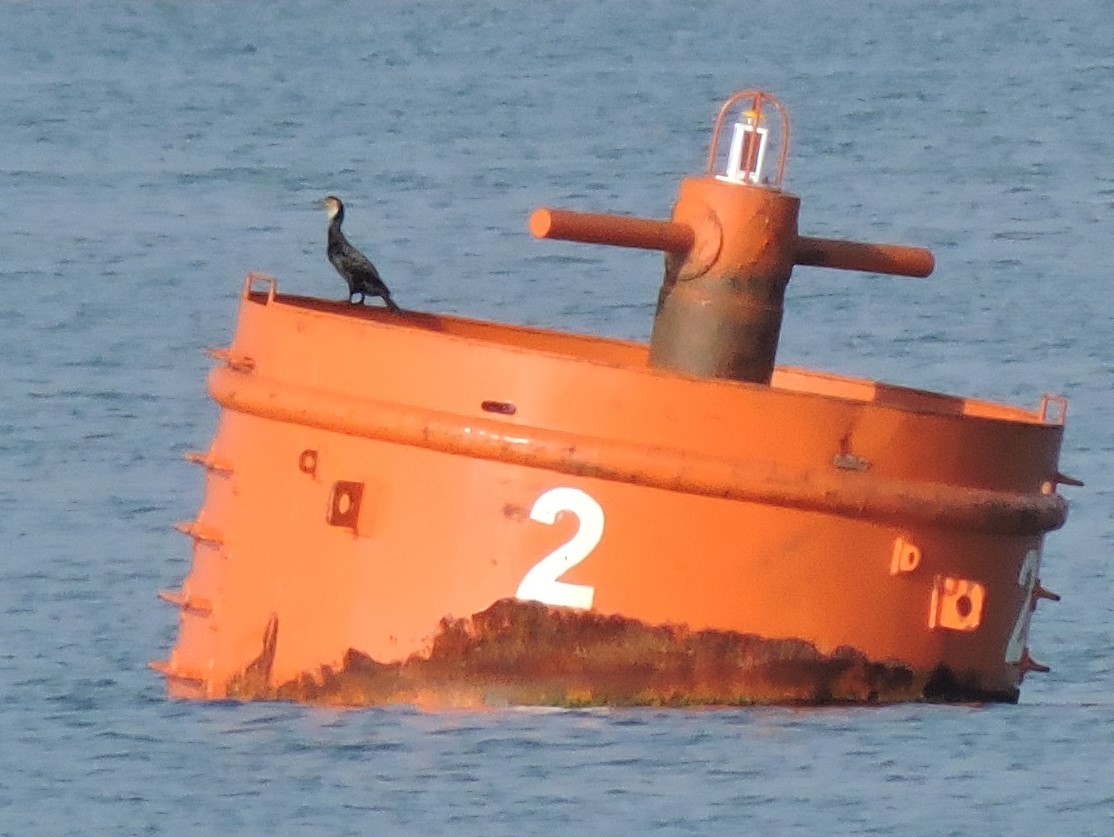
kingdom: Animalia
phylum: Chordata
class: Aves
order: Suliformes
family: Phalacrocoracidae
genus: Phalacrocorax
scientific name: Phalacrocorax carbo
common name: Great cormorant
